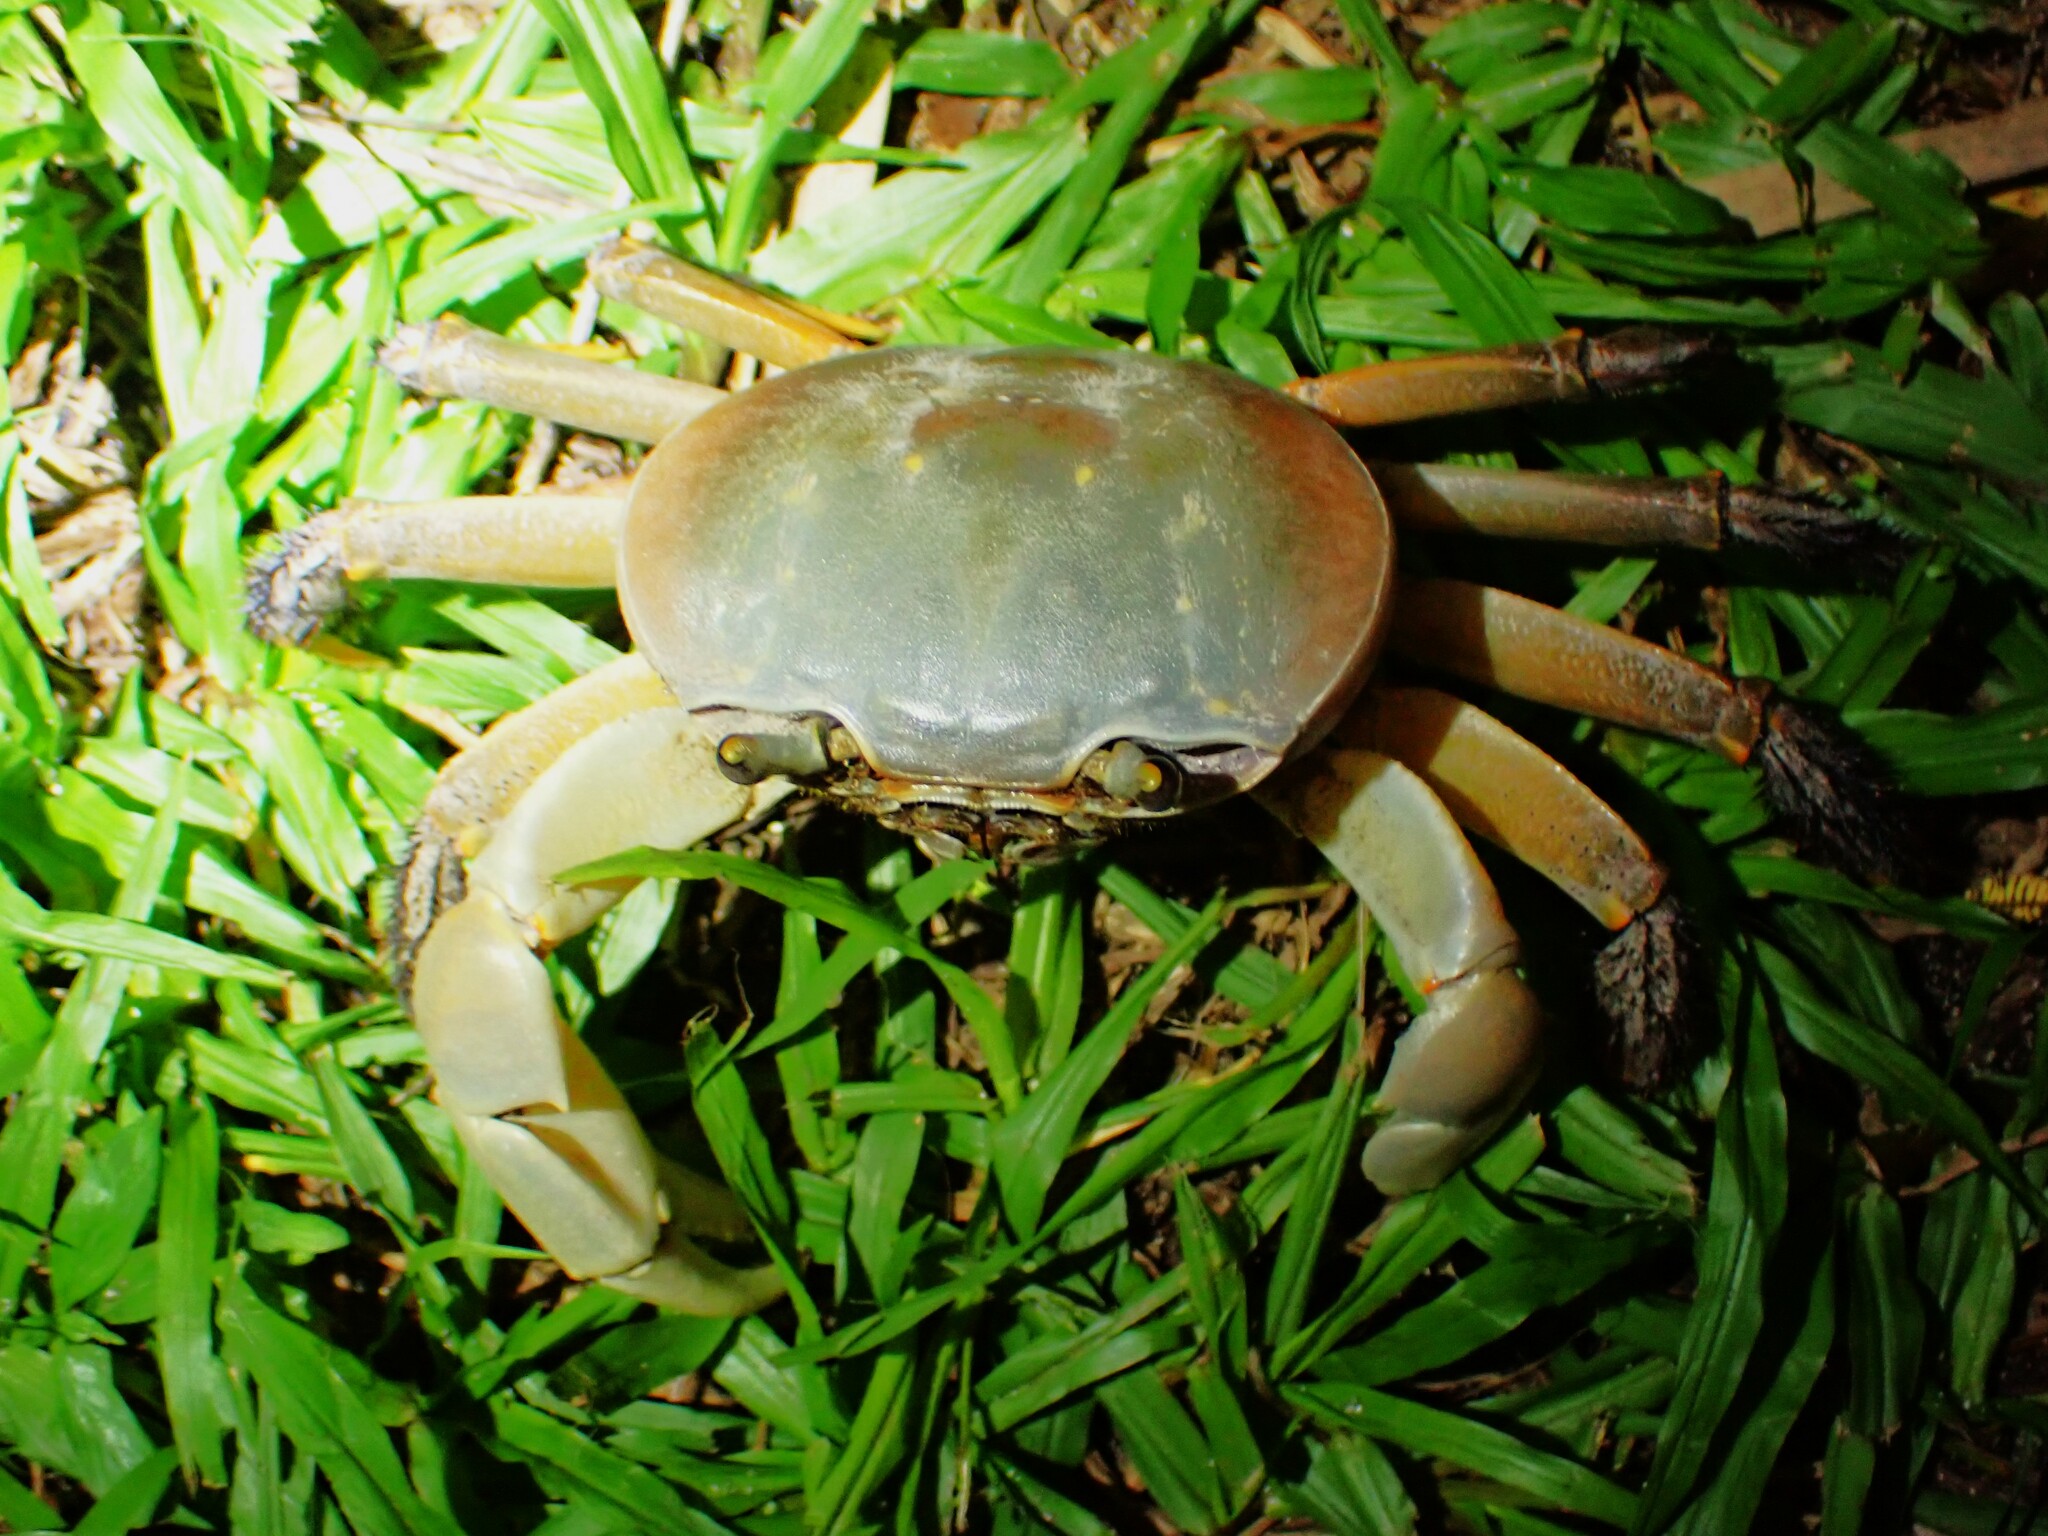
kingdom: Animalia
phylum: Arthropoda
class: Malacostraca
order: Decapoda
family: Gecarcinidae
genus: Cardisoma
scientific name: Cardisoma carnifex
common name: Brown land crab
